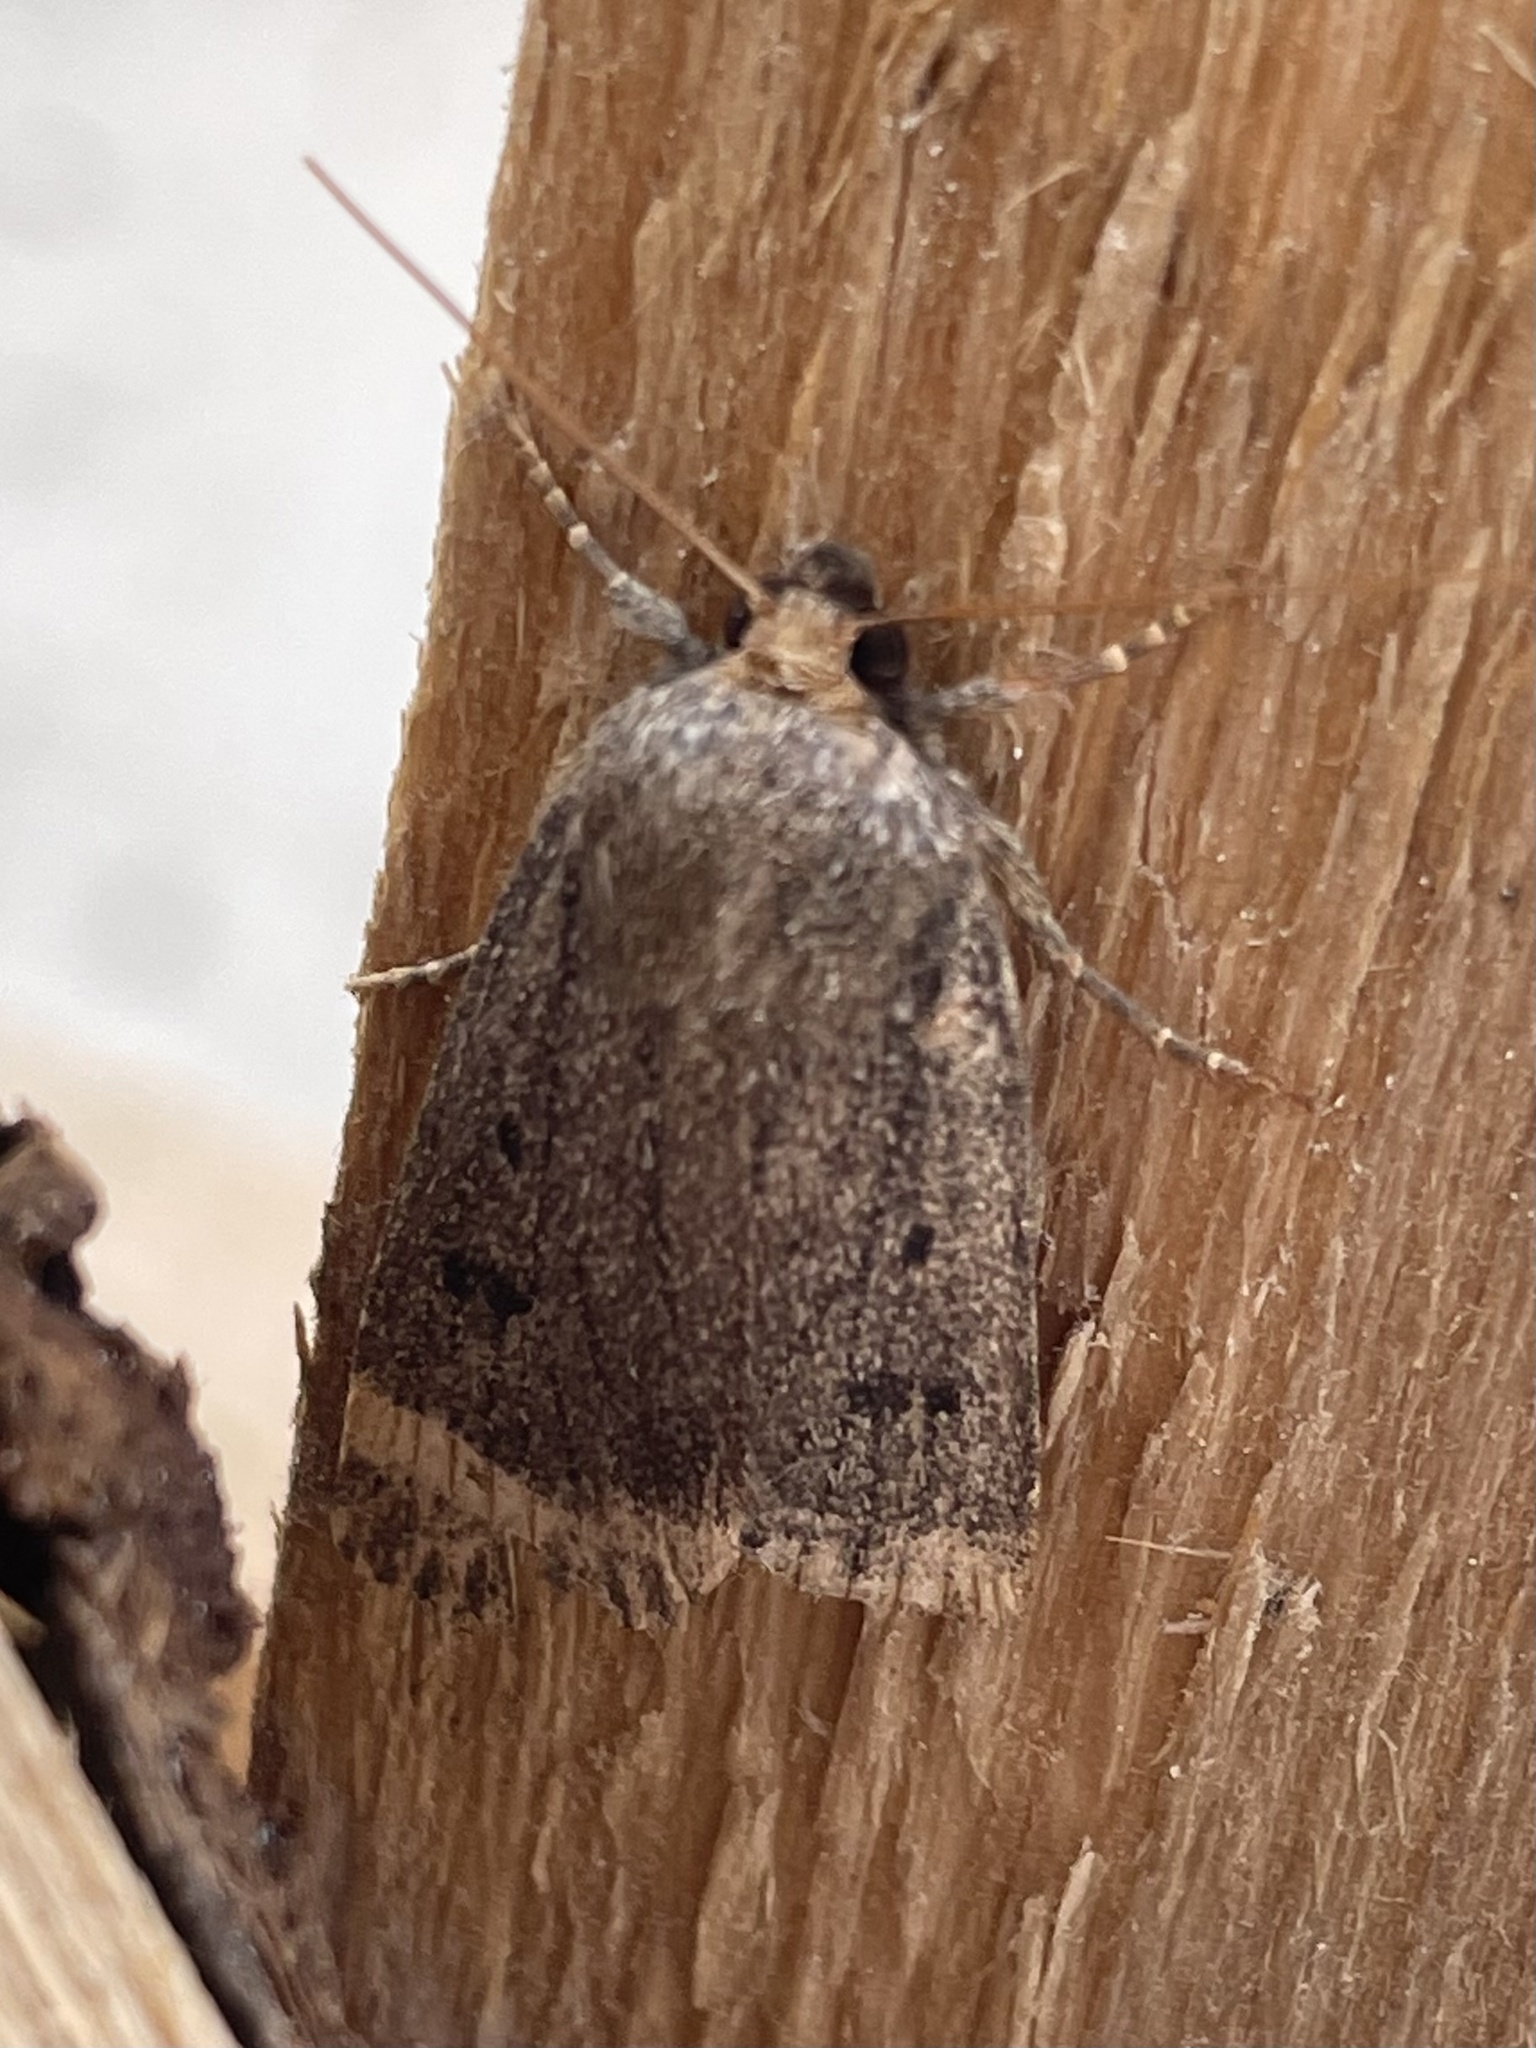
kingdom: Animalia
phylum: Arthropoda
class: Insecta
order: Lepidoptera
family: Noctuidae
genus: Amphipyra
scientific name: Amphipyra tragopoginis
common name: Mouse moth
